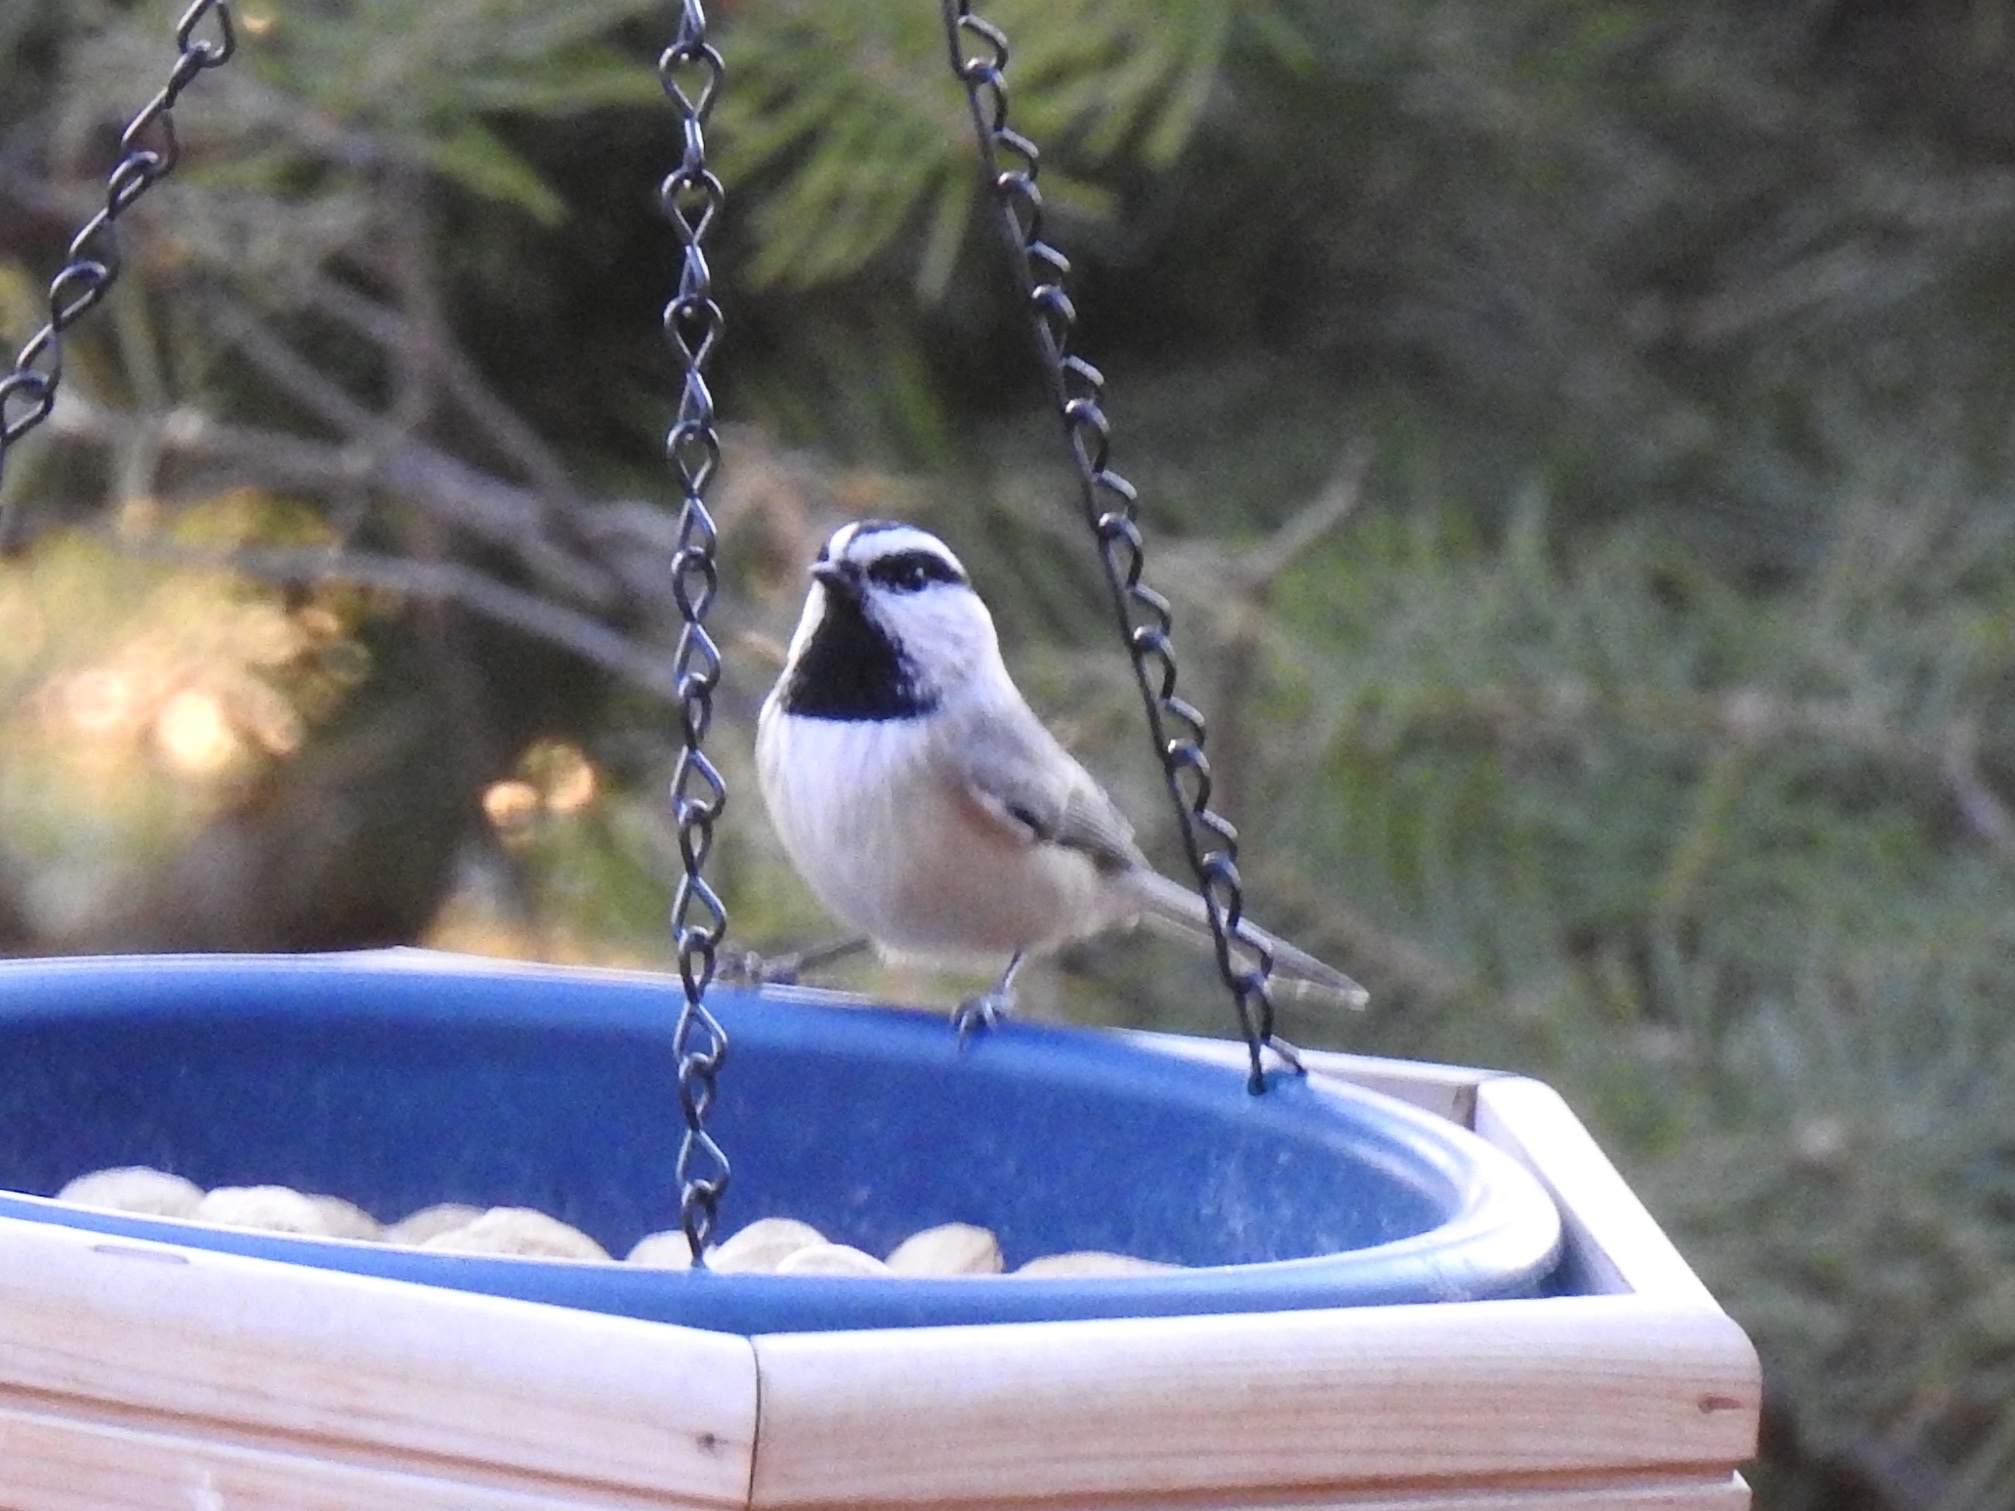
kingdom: Animalia
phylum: Chordata
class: Aves
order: Passeriformes
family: Paridae
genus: Poecile
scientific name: Poecile gambeli
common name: Mountain chickadee
